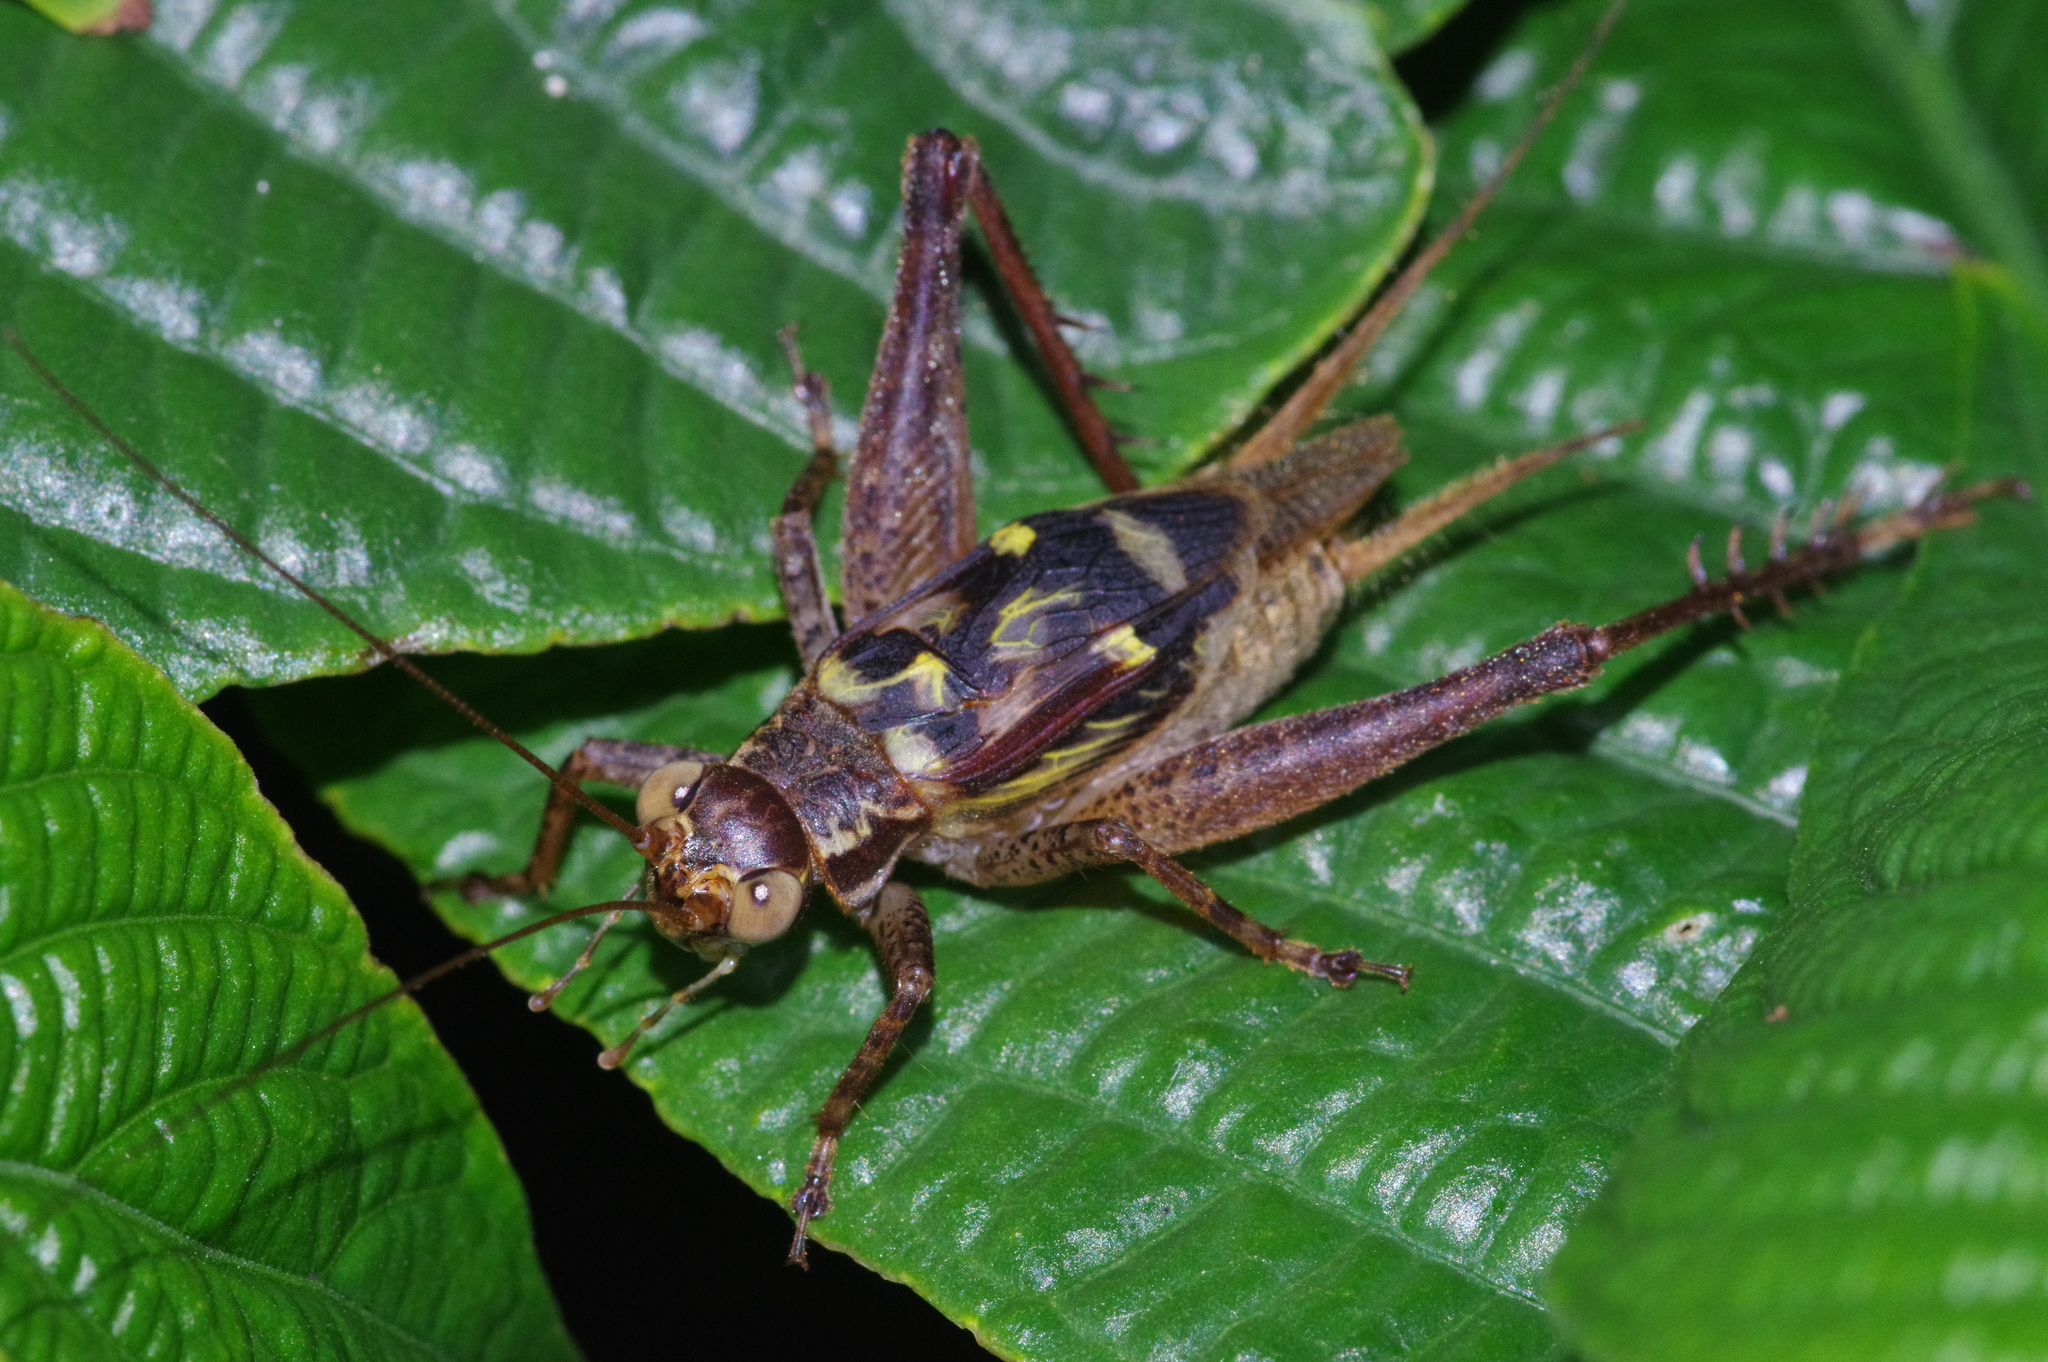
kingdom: Animalia
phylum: Arthropoda
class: Insecta
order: Orthoptera
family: Gryllidae
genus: Cardiodactylus
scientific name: Cardiodactylus guttulus
